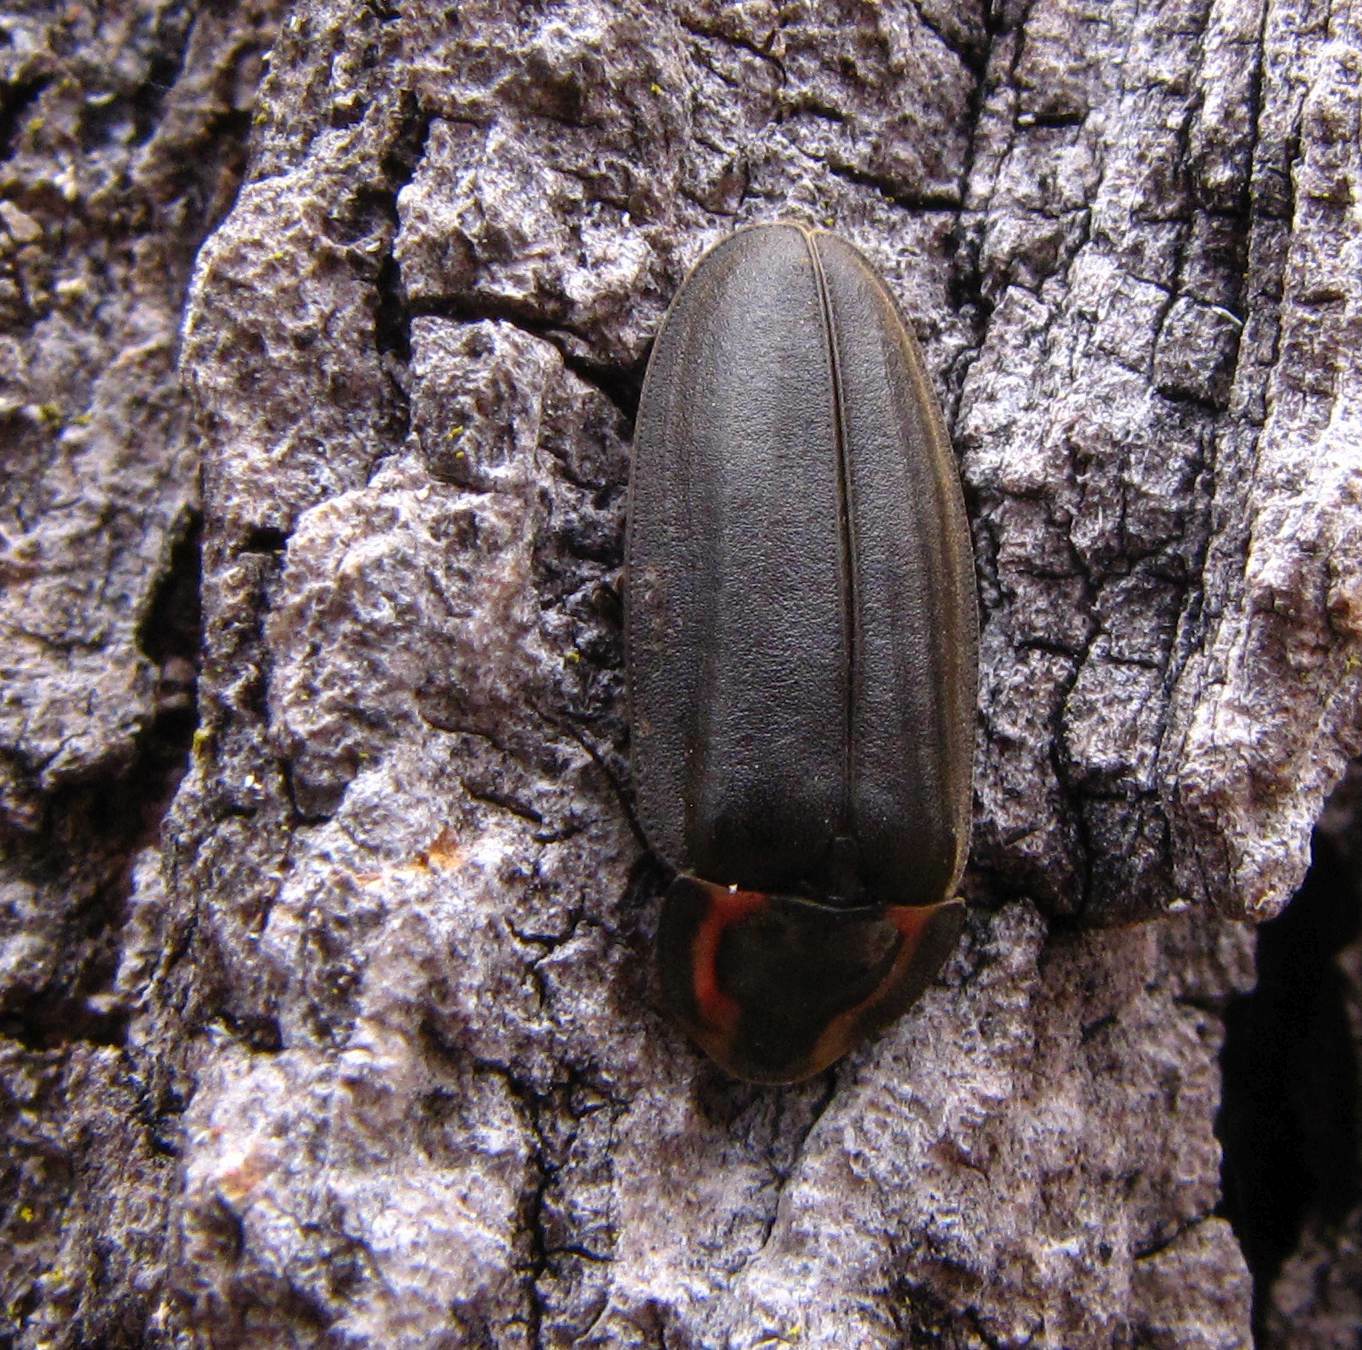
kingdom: Animalia
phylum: Arthropoda
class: Insecta
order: Coleoptera
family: Lampyridae
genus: Photinus
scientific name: Photinus corrusca
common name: Winter firefly
